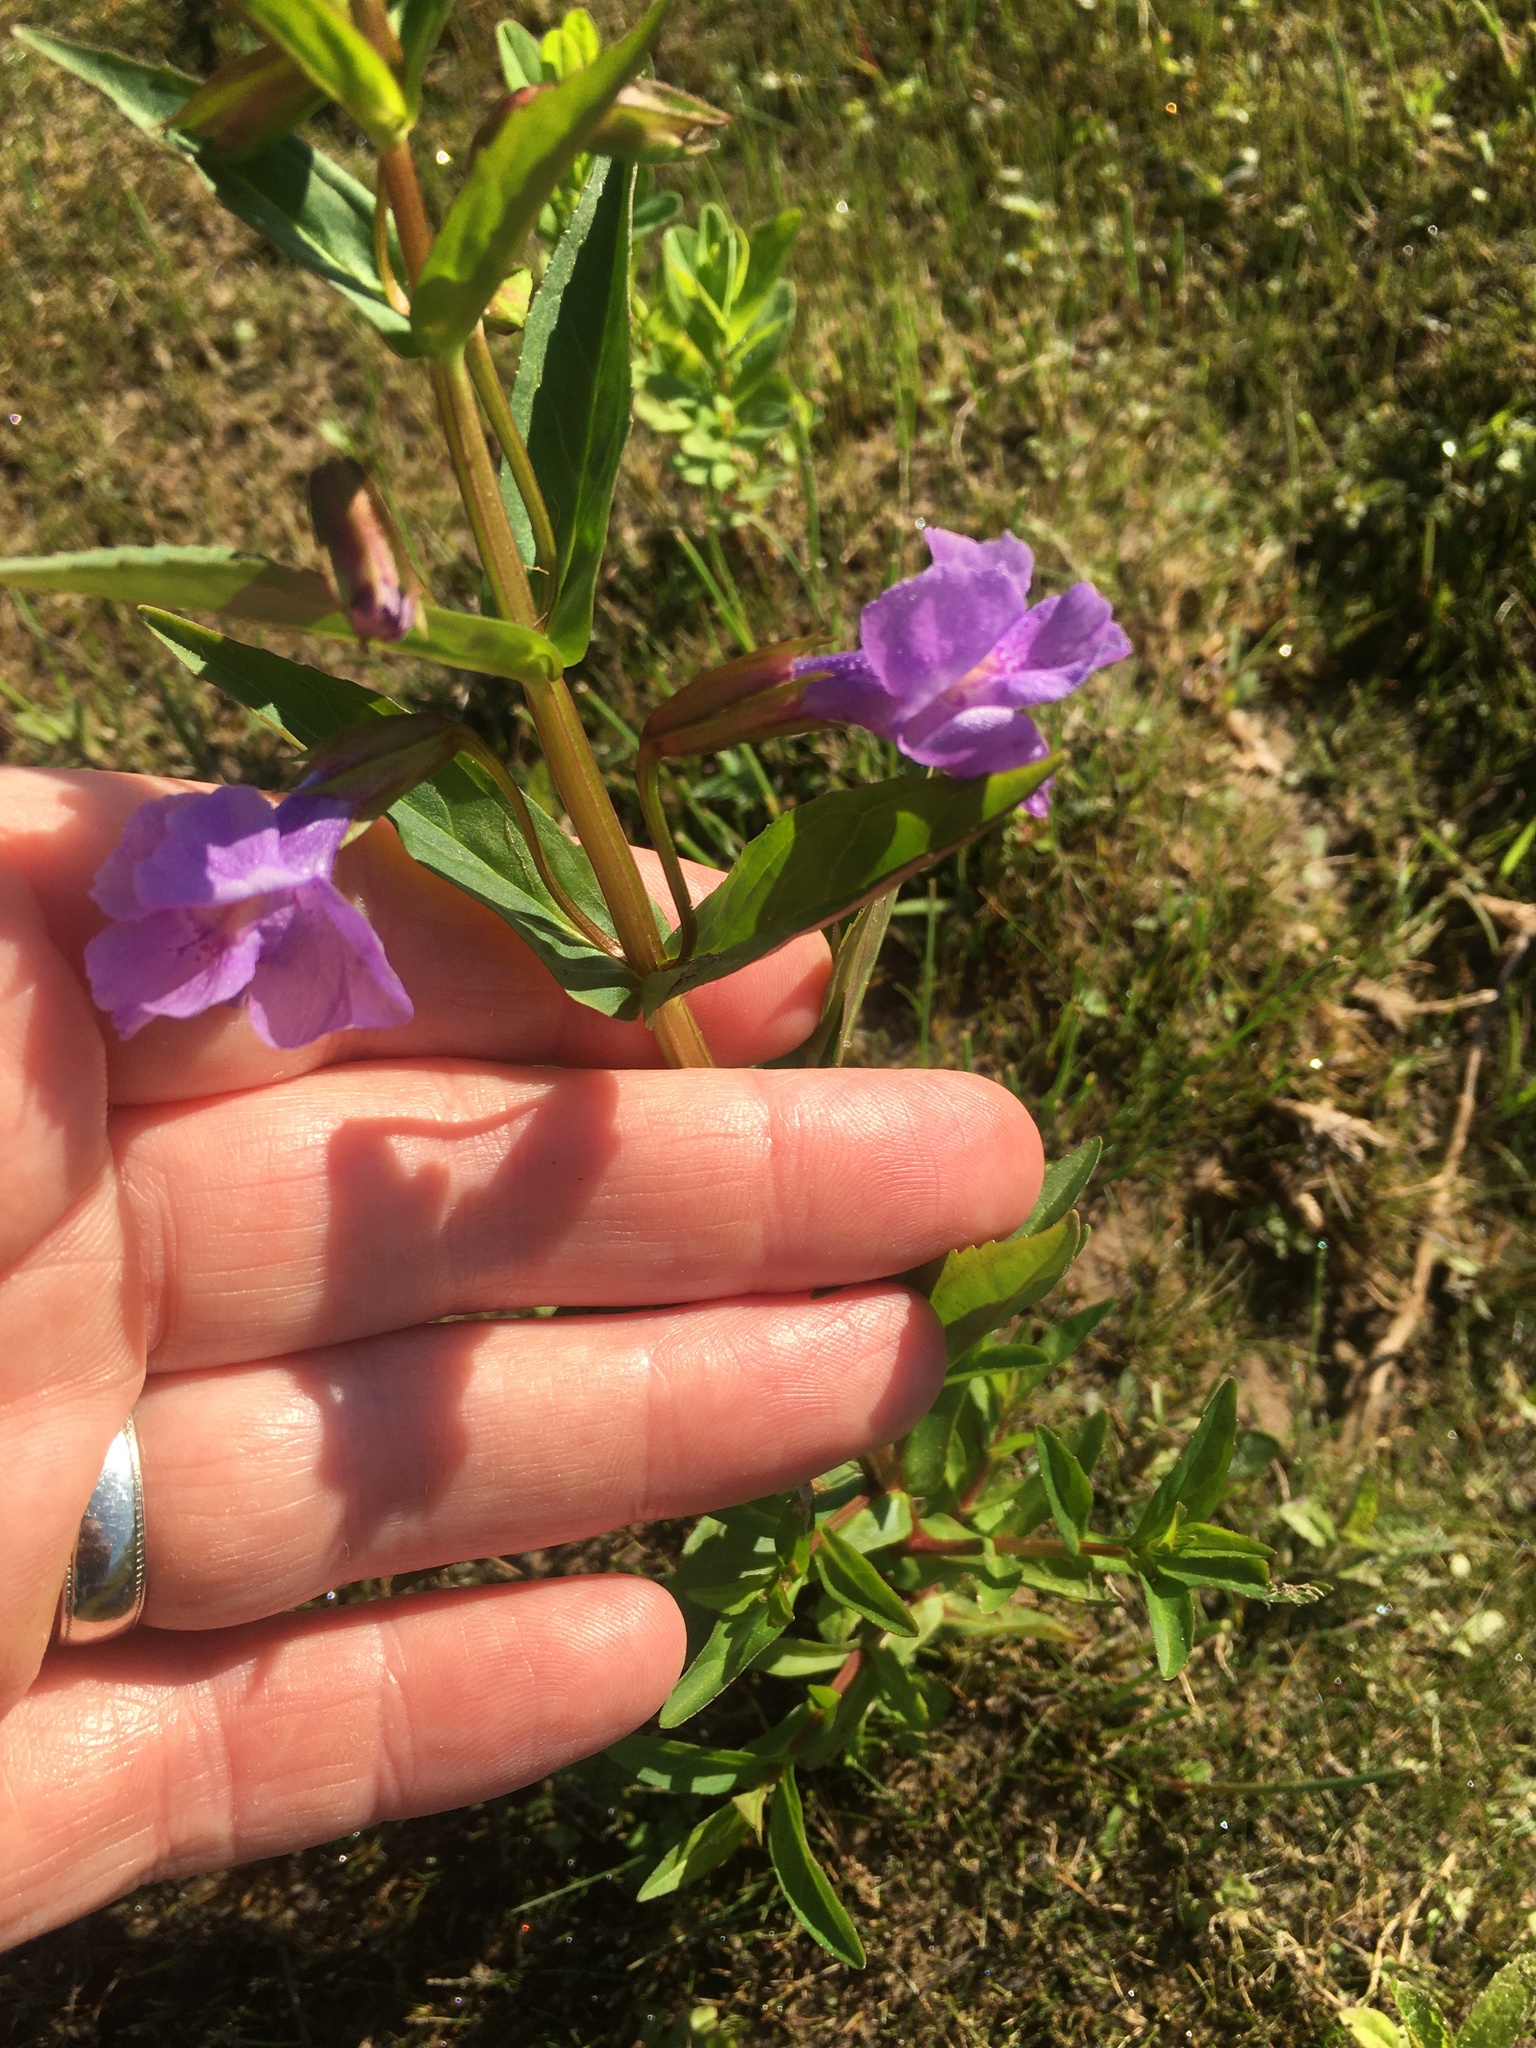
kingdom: Plantae
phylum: Tracheophyta
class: Magnoliopsida
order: Lamiales
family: Phrymaceae
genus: Mimulus
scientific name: Mimulus ringens
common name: Allegheny monkeyflower
